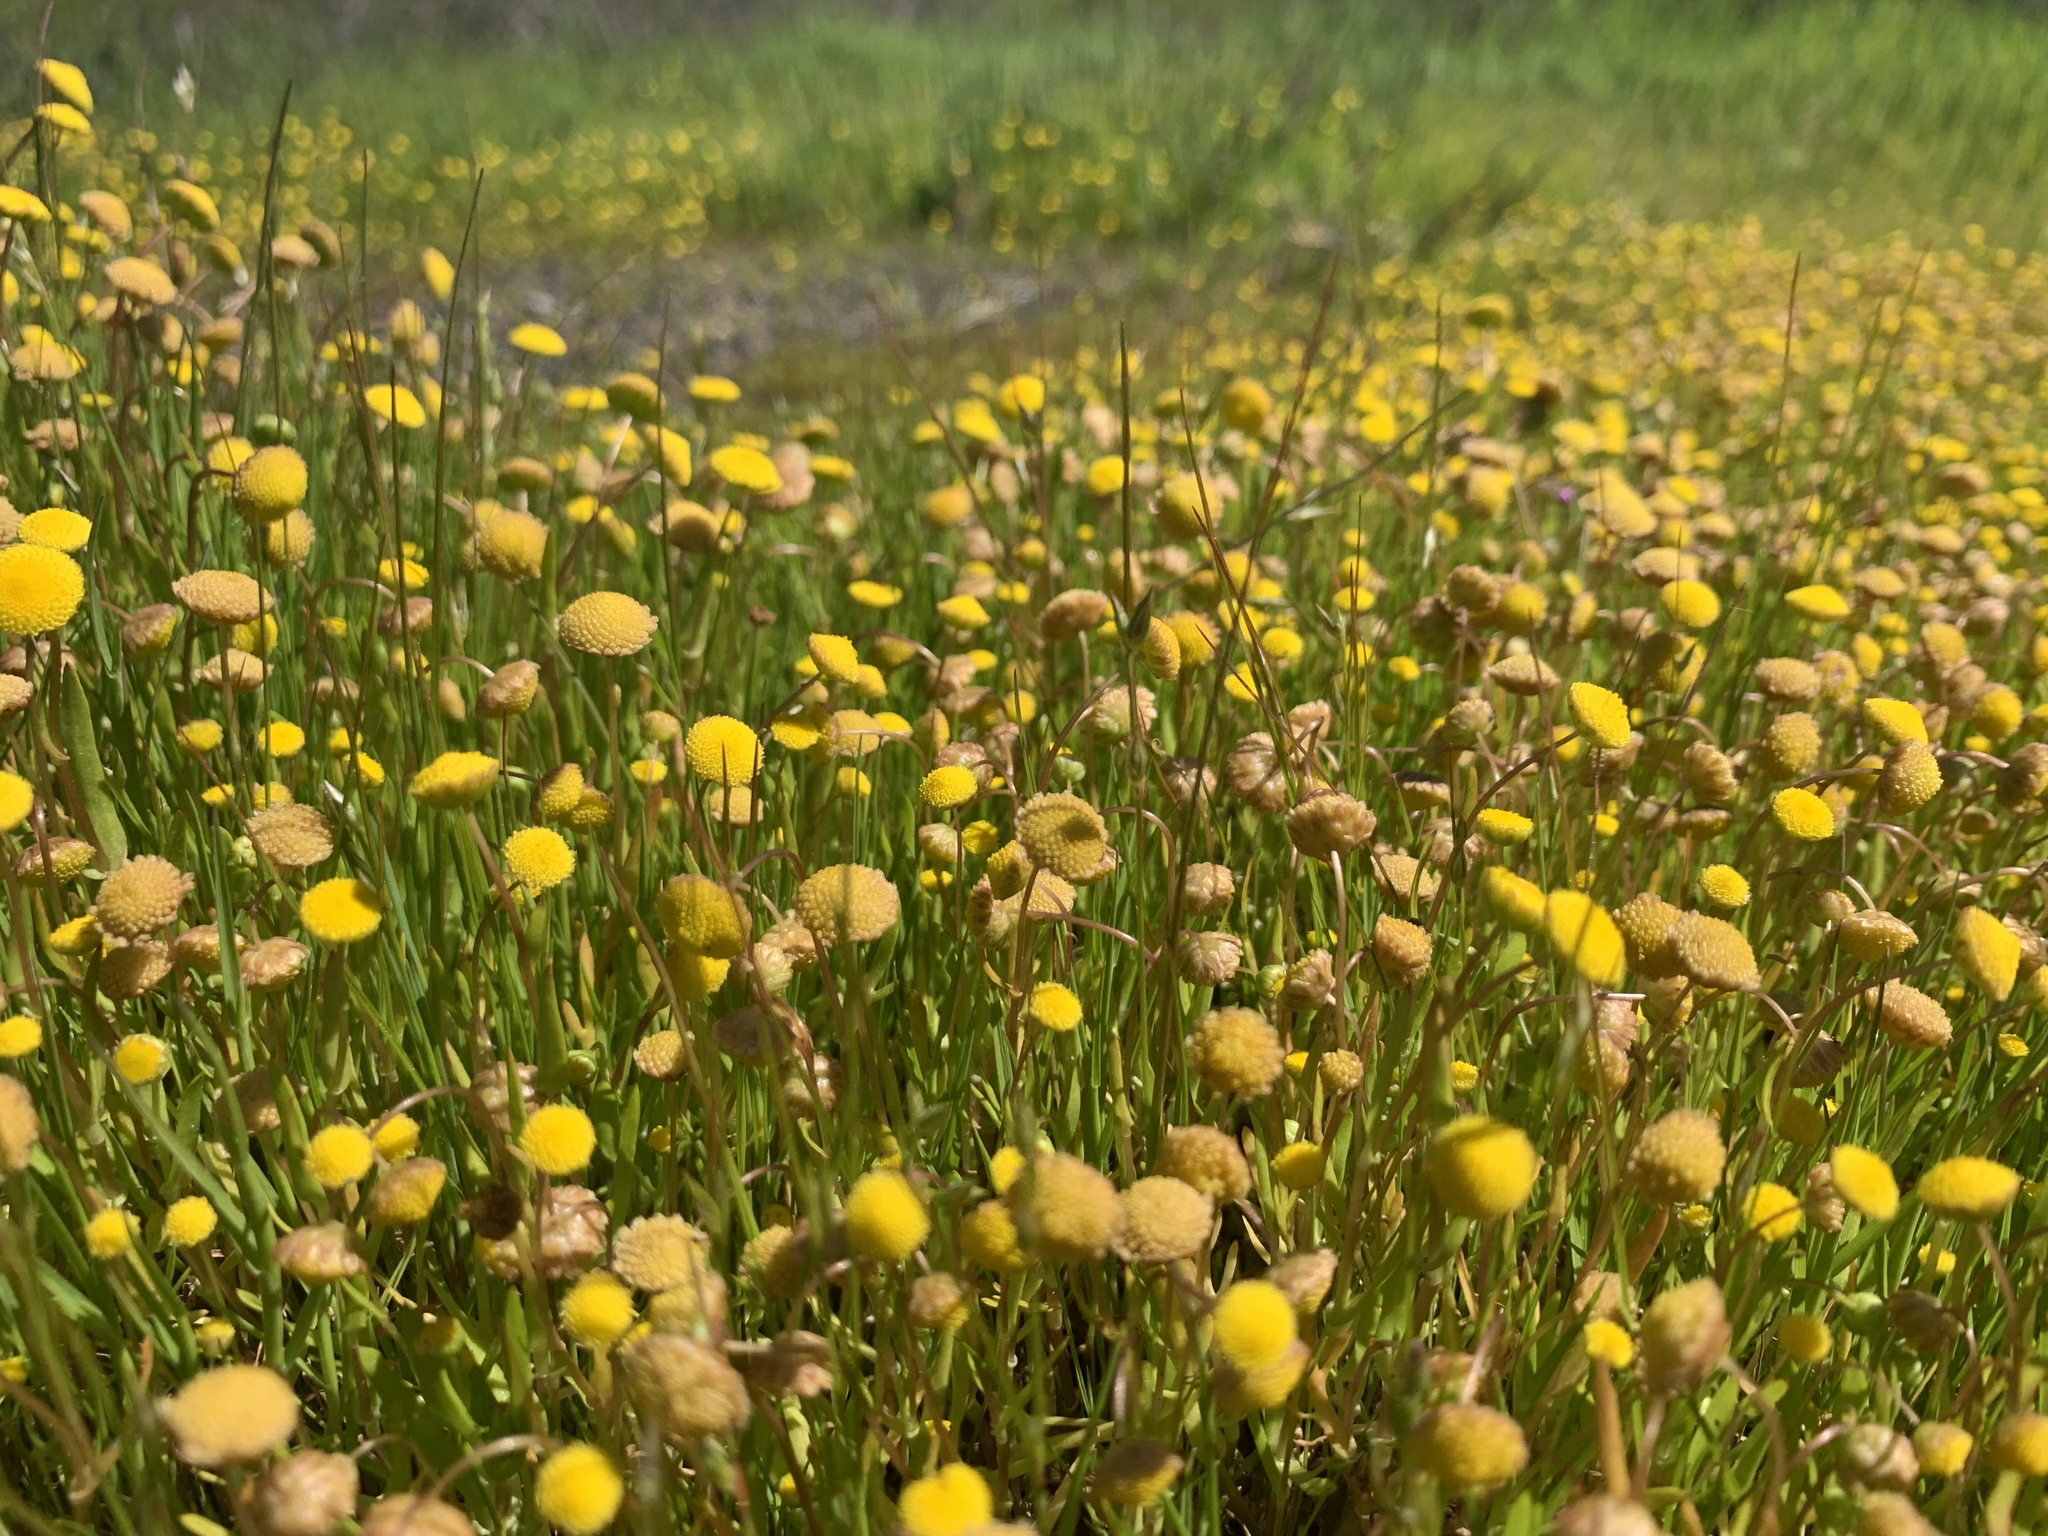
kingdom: Plantae
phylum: Tracheophyta
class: Magnoliopsida
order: Asterales
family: Asteraceae
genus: Cotula
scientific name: Cotula coronopifolia
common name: Buttonweed
